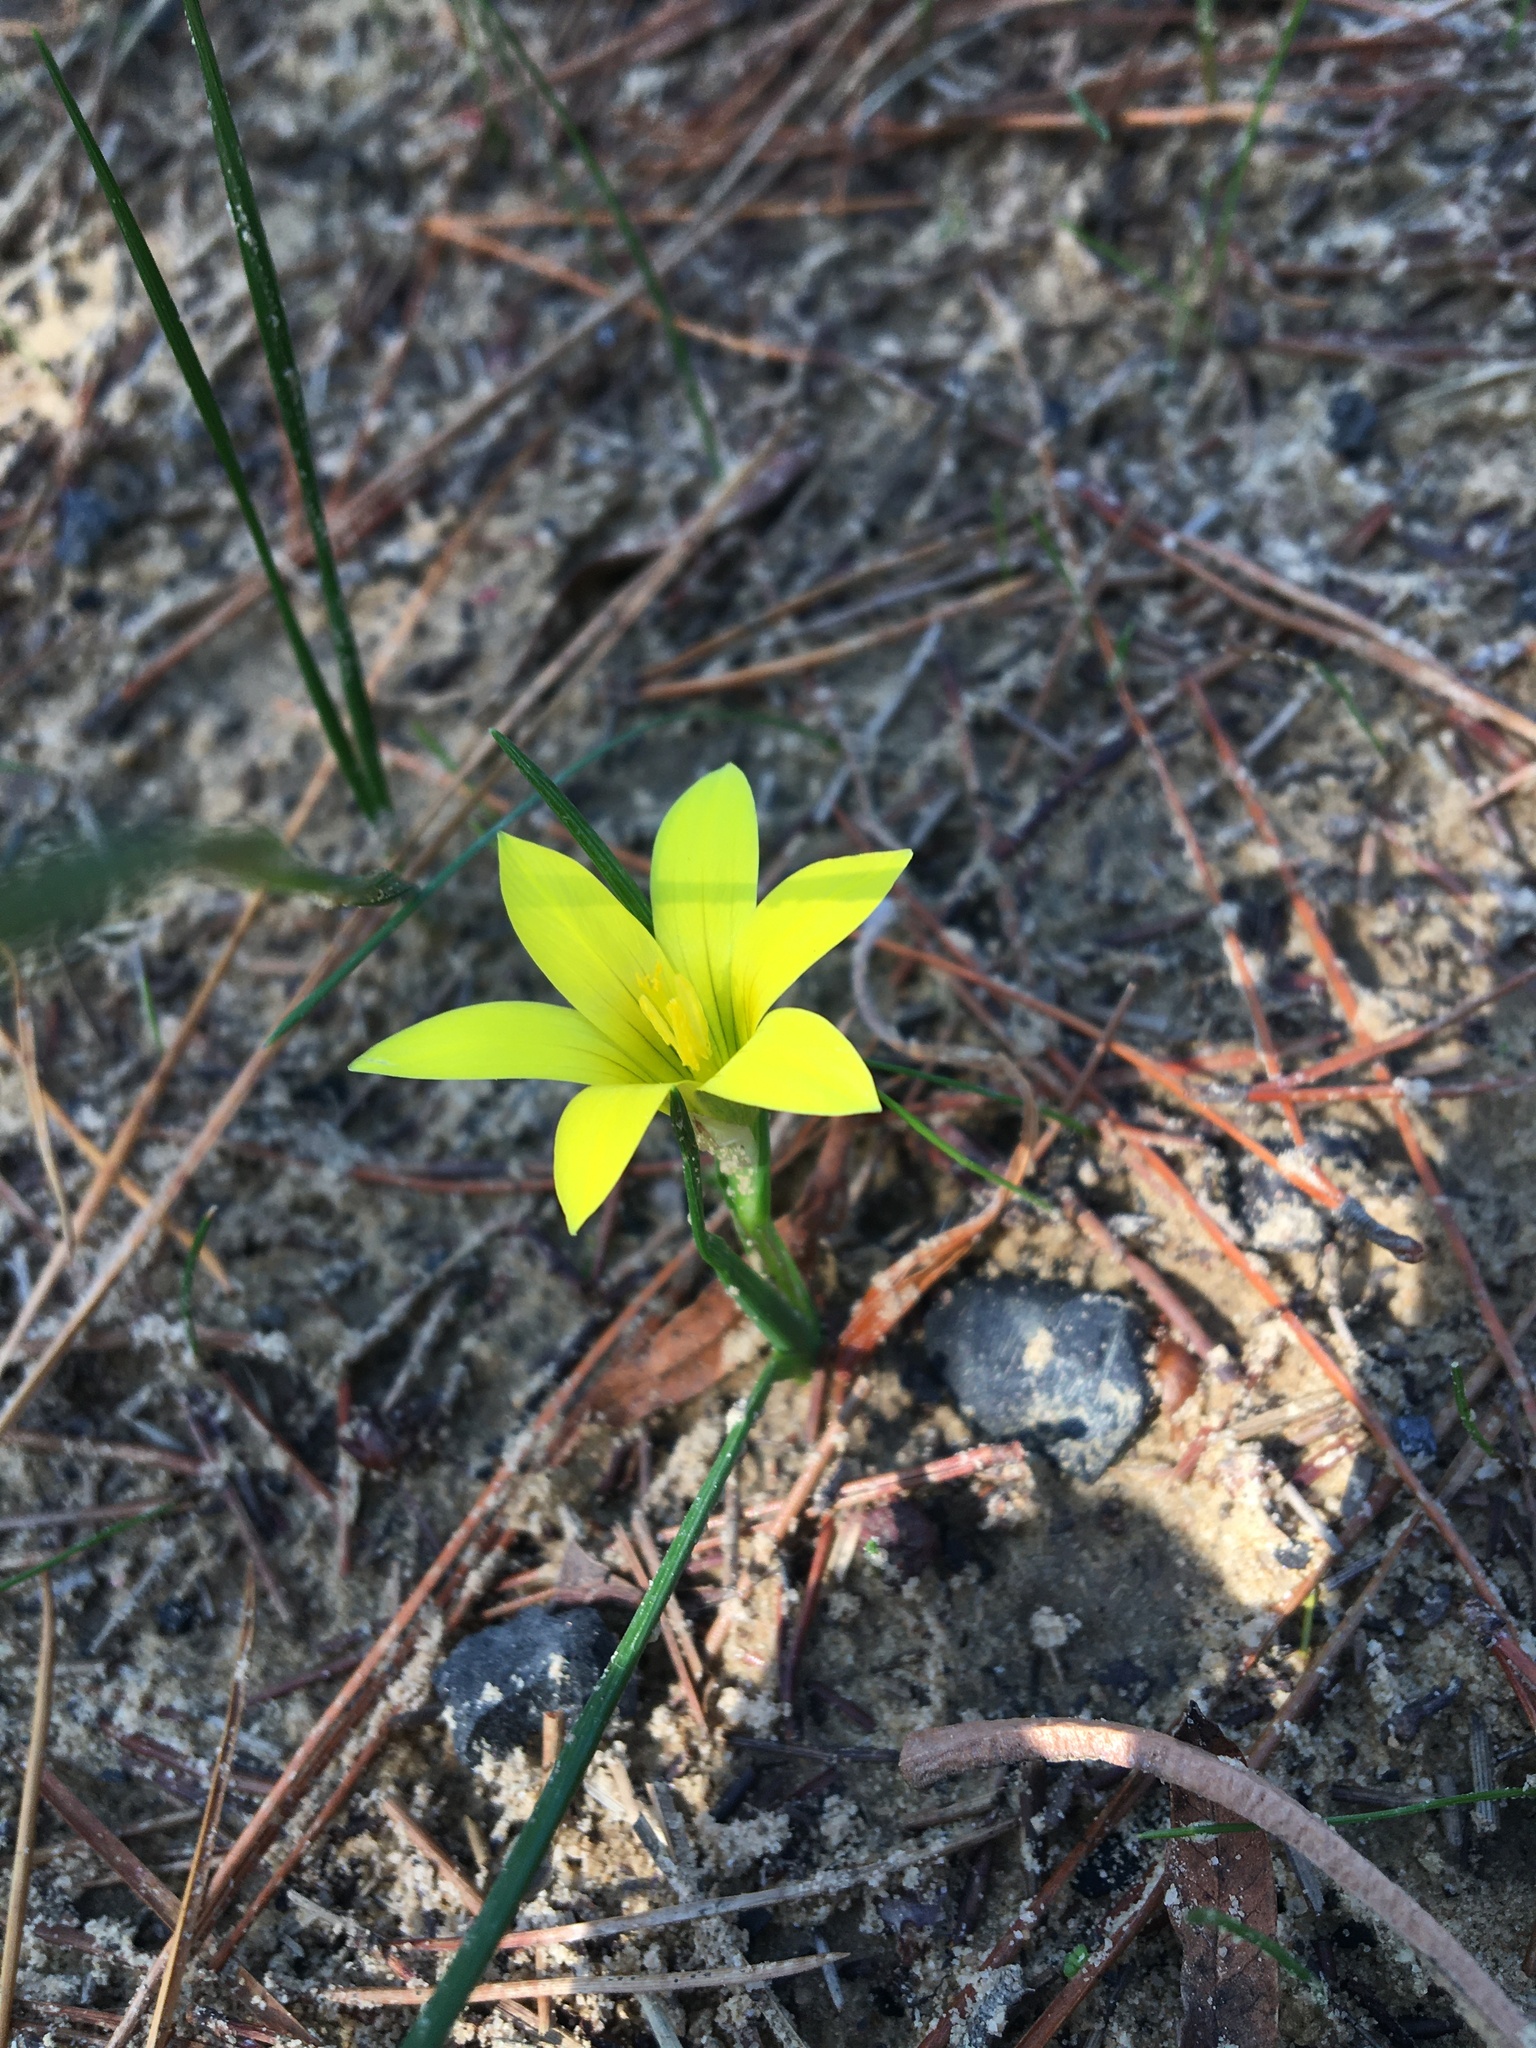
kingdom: Plantae
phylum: Tracheophyta
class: Liliopsida
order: Asparagales
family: Iridaceae
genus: Romulea
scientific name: Romulea flava
